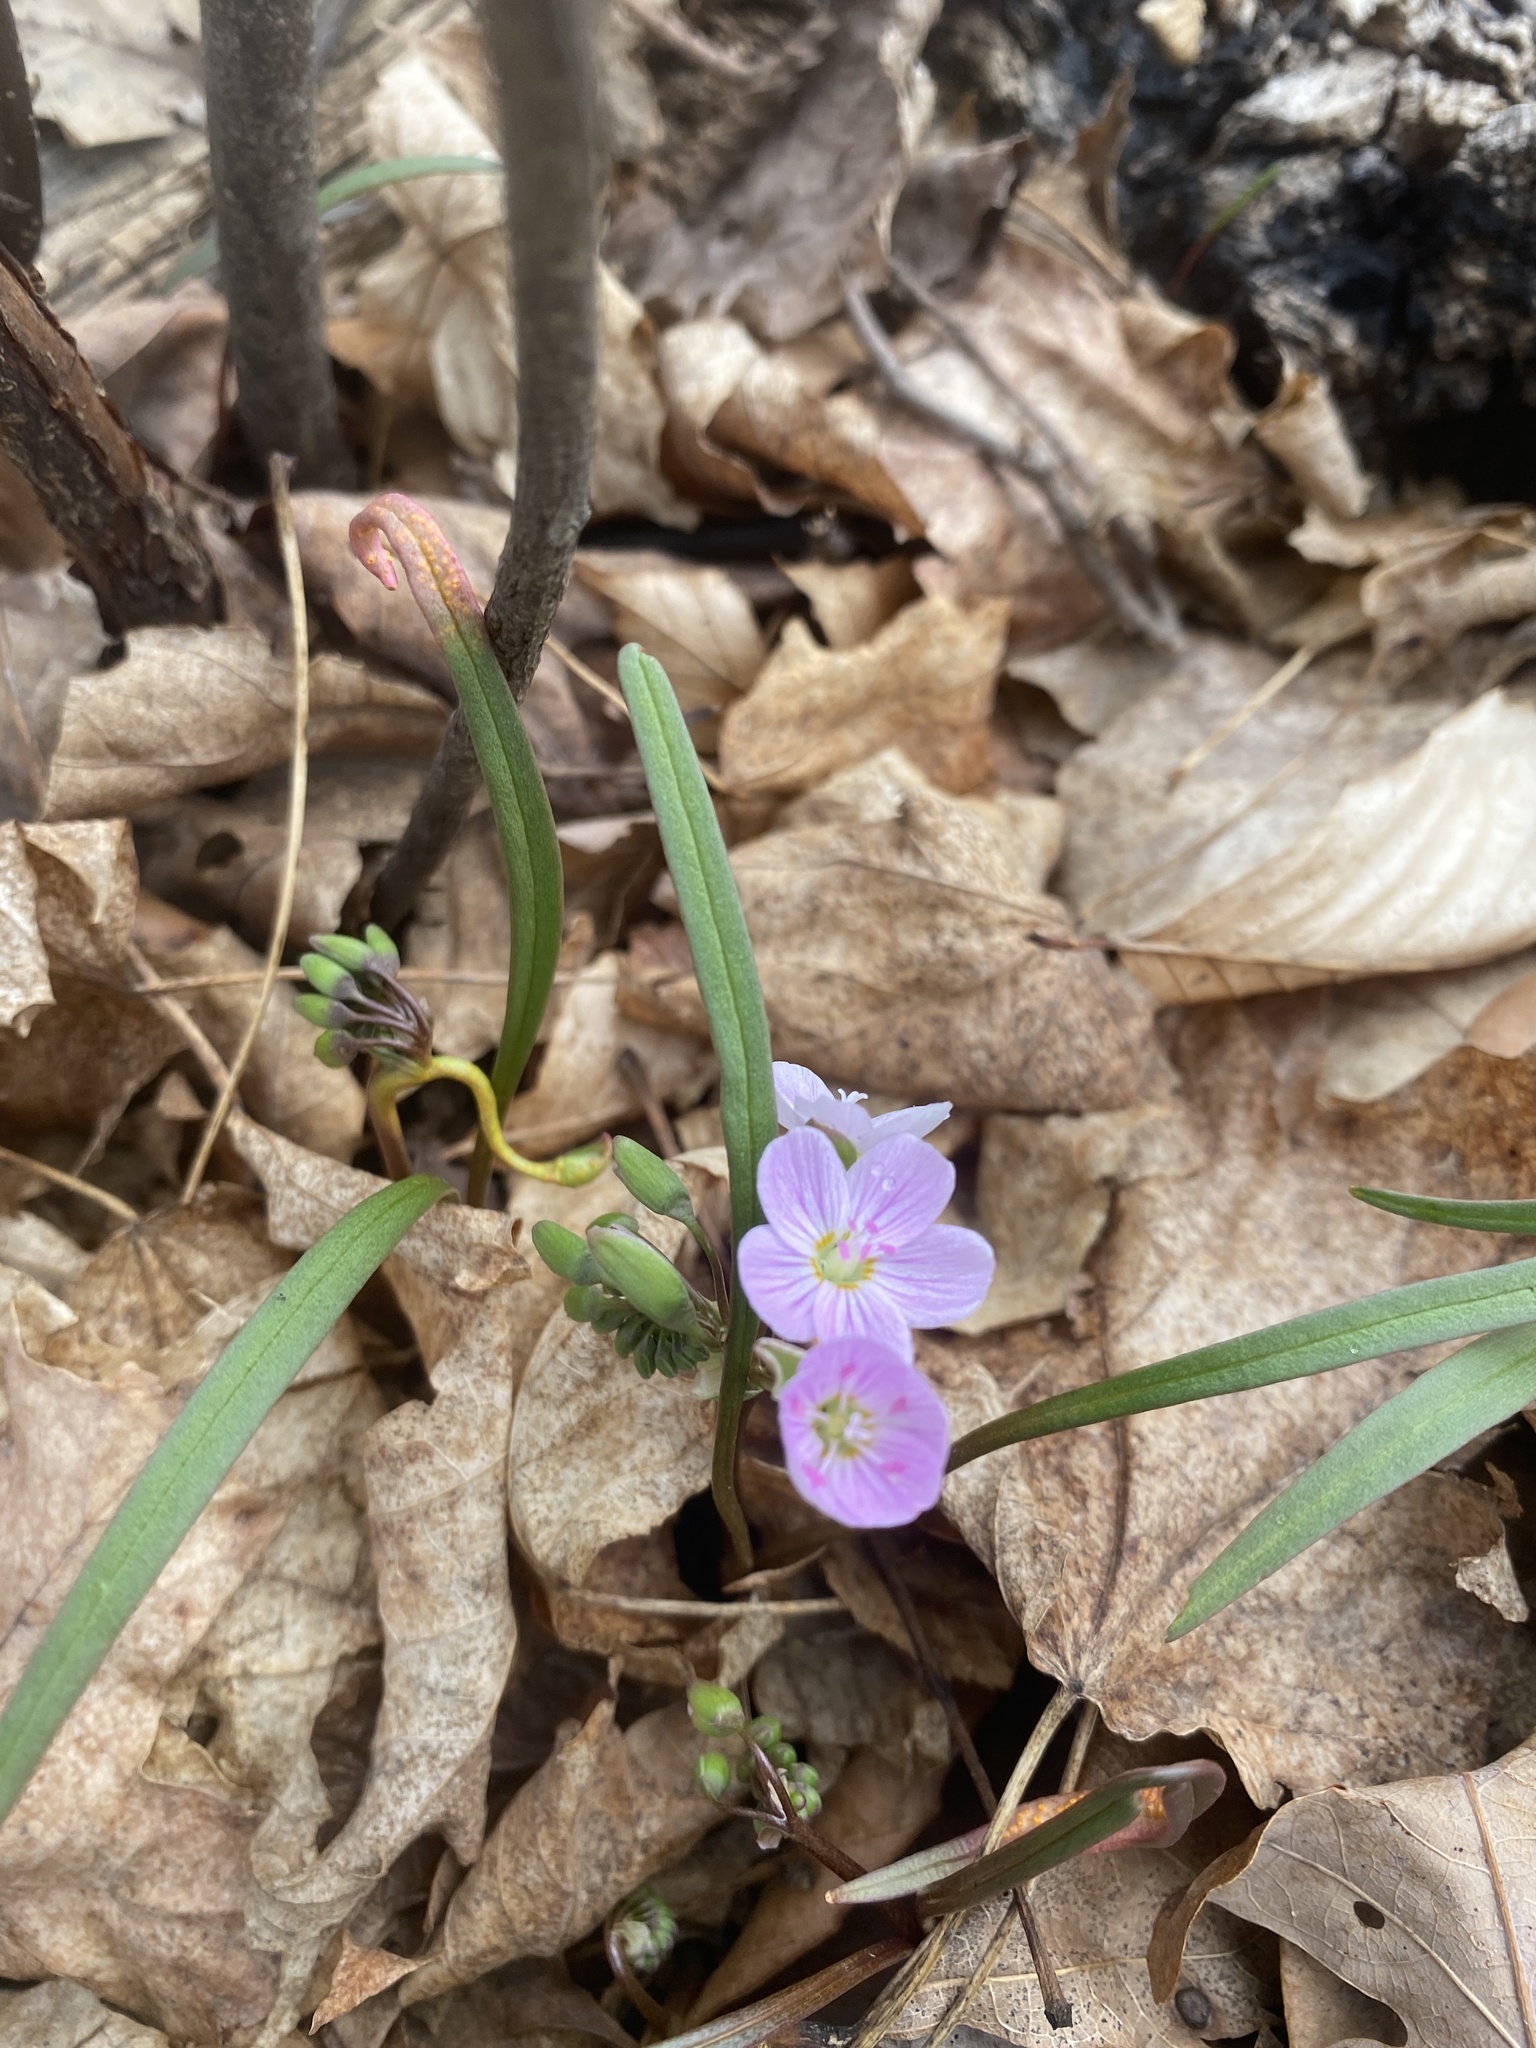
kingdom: Plantae
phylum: Tracheophyta
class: Magnoliopsida
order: Caryophyllales
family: Montiaceae
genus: Claytonia
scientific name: Claytonia virginica
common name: Virginia springbeauty
